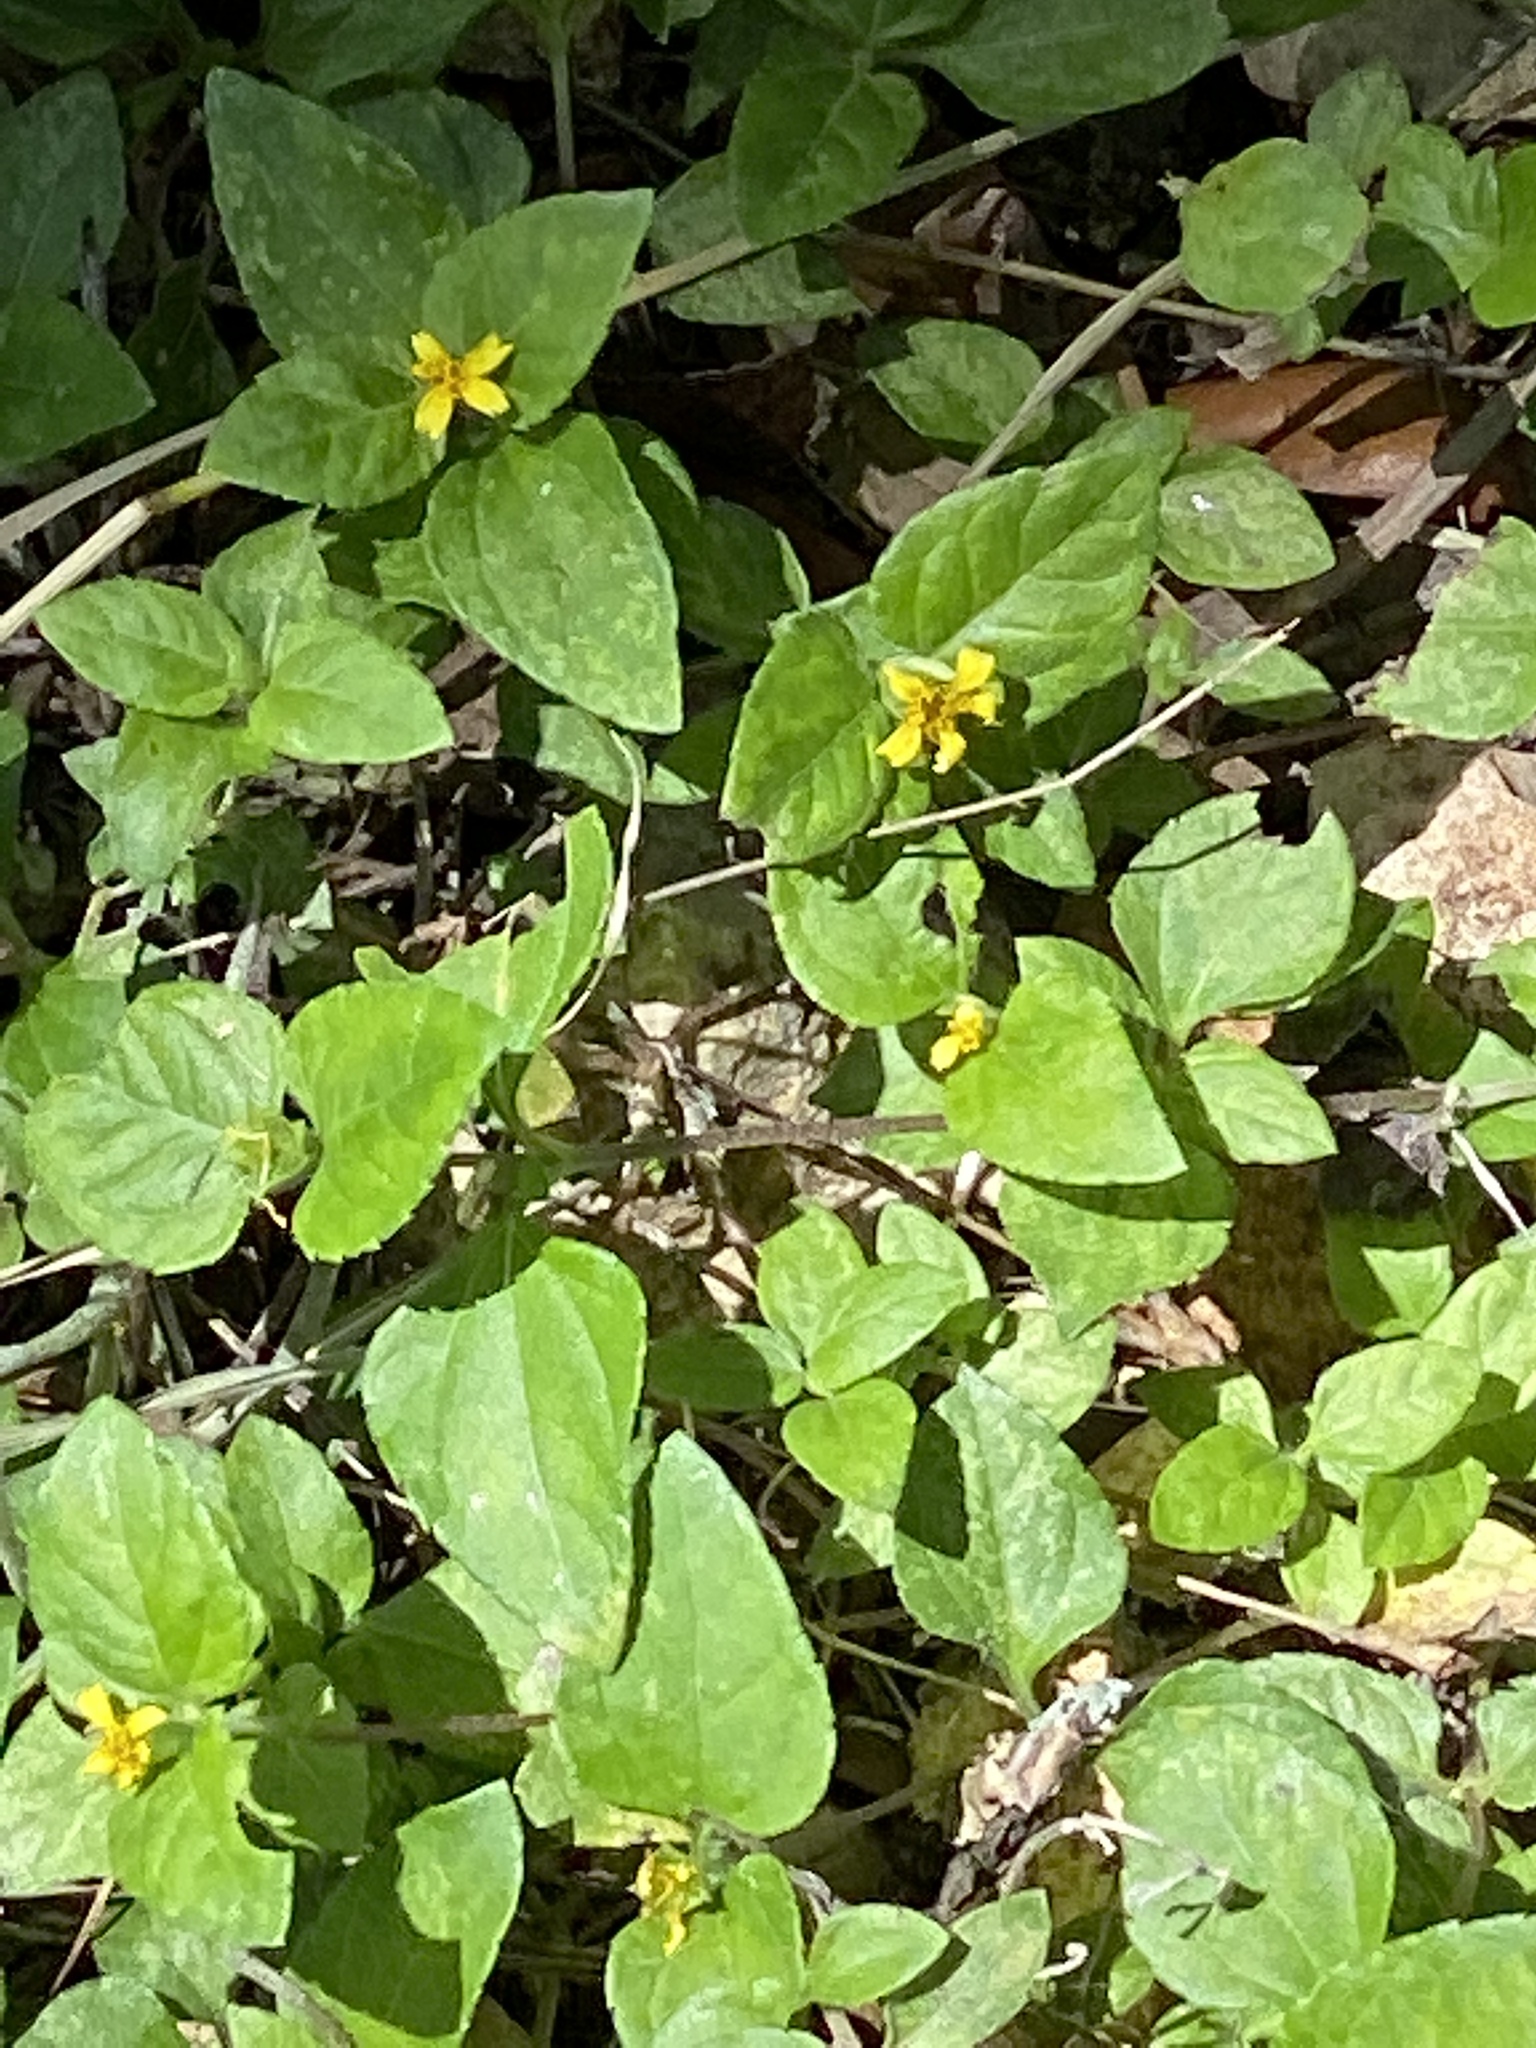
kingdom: Plantae
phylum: Tracheophyta
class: Magnoliopsida
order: Asterales
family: Asteraceae
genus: Calyptocarpus
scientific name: Calyptocarpus vialis
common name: Straggler daisy
